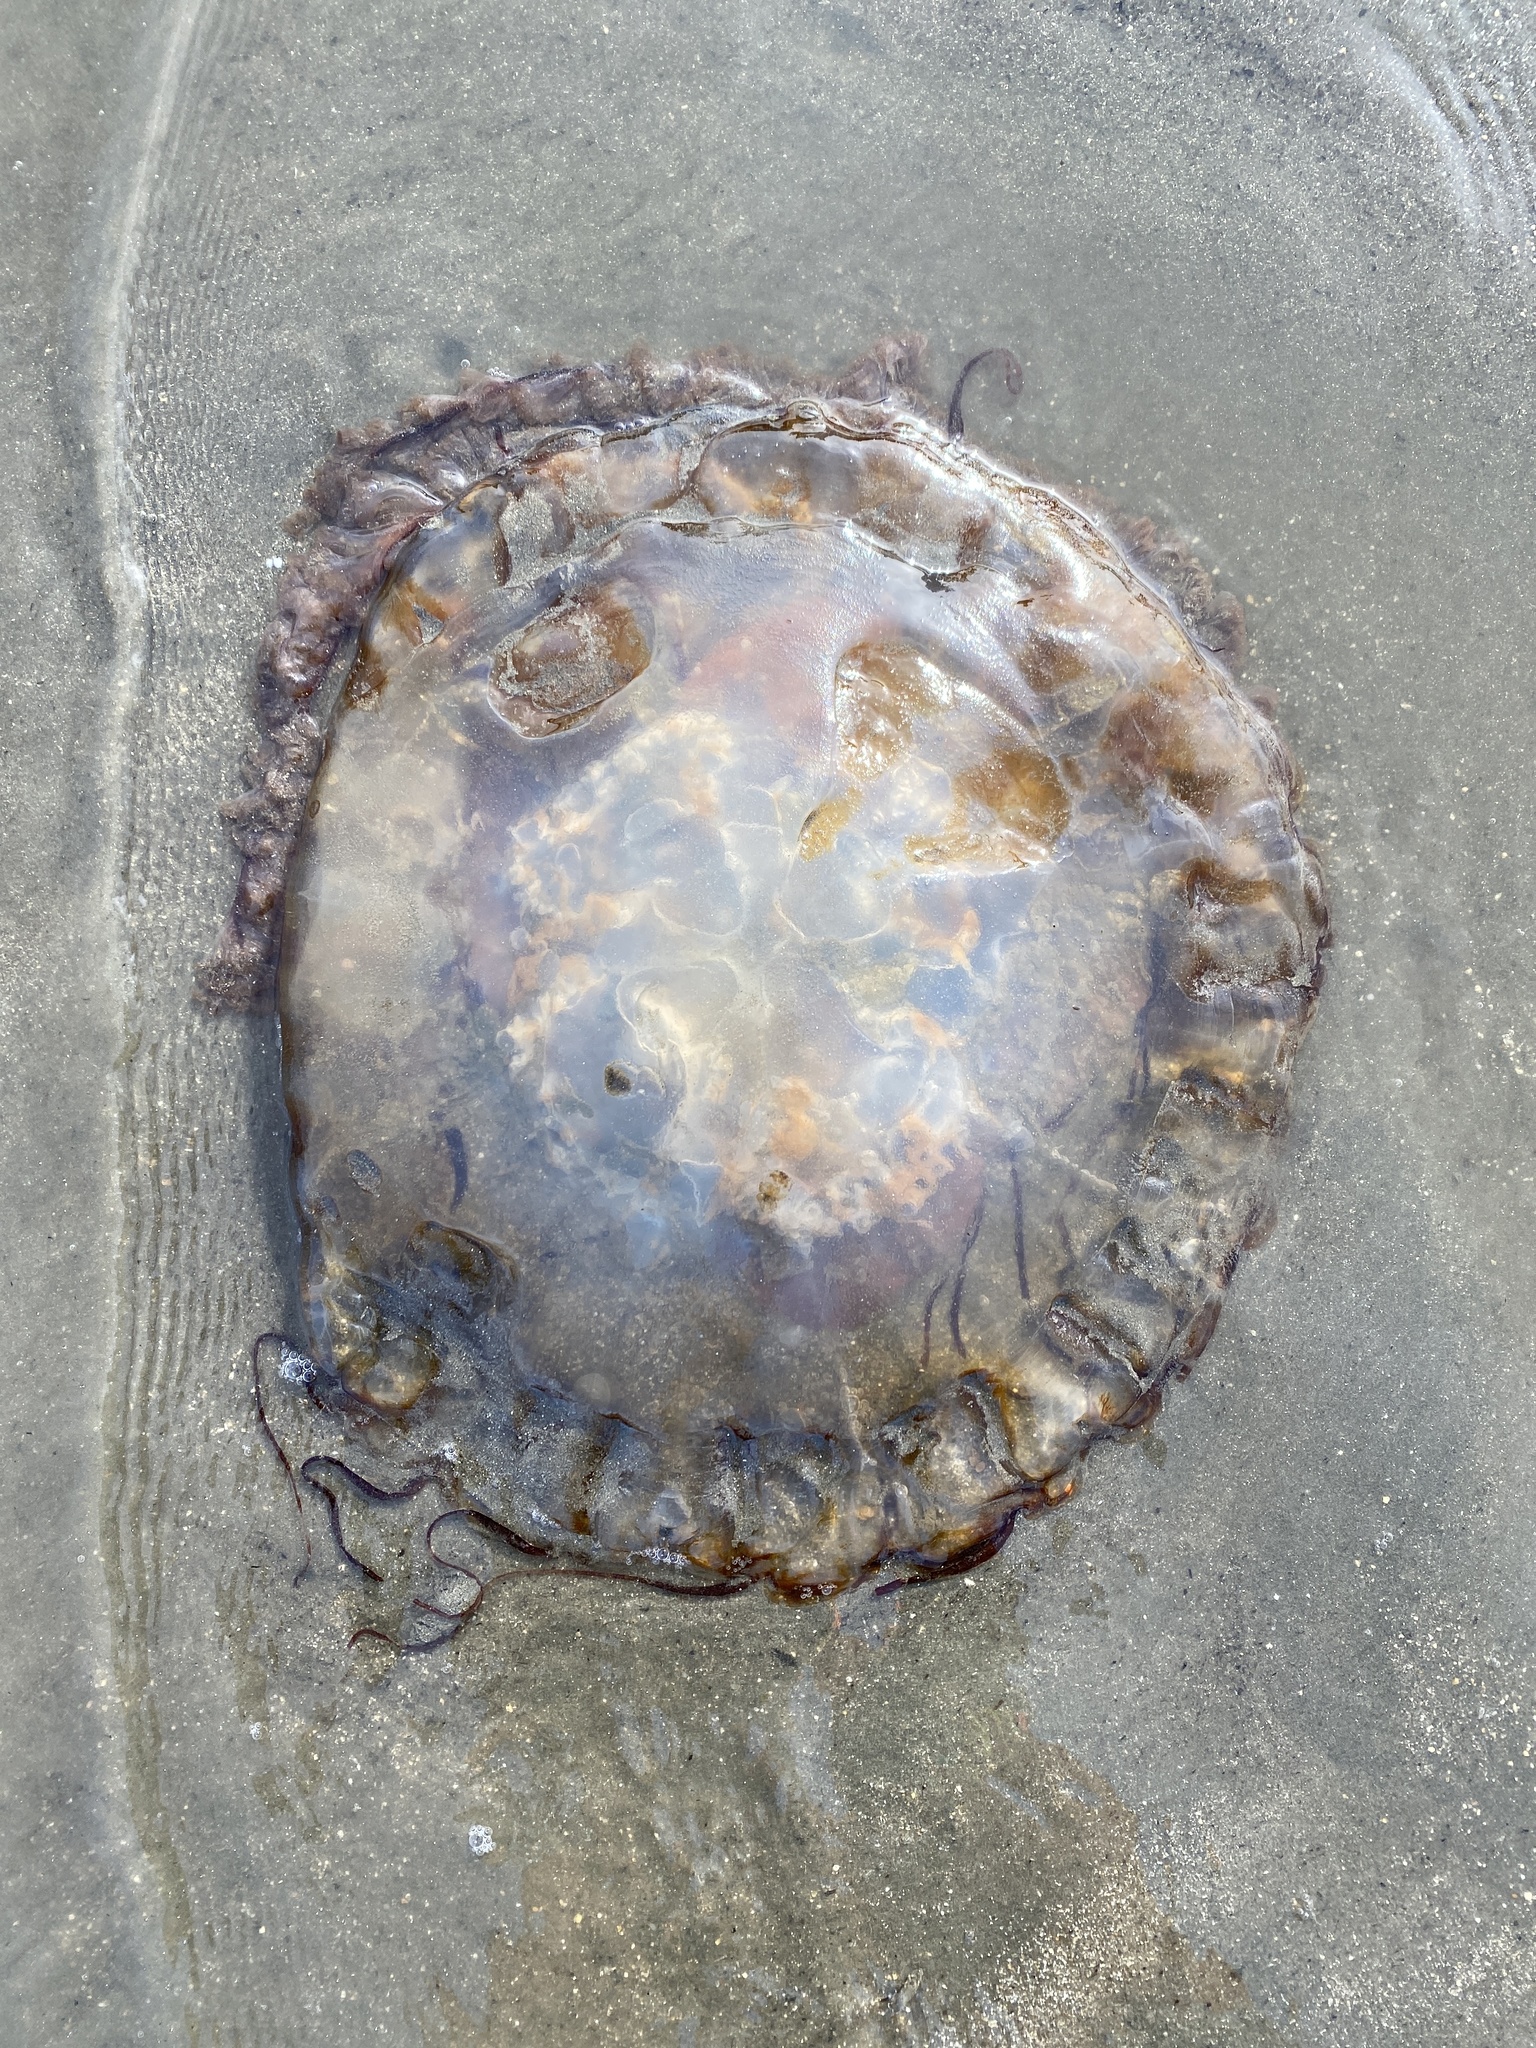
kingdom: Animalia
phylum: Cnidaria
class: Scyphozoa
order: Semaeostomeae
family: Pelagiidae
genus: Chrysaora
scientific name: Chrysaora fuscescens
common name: Sea nettle
